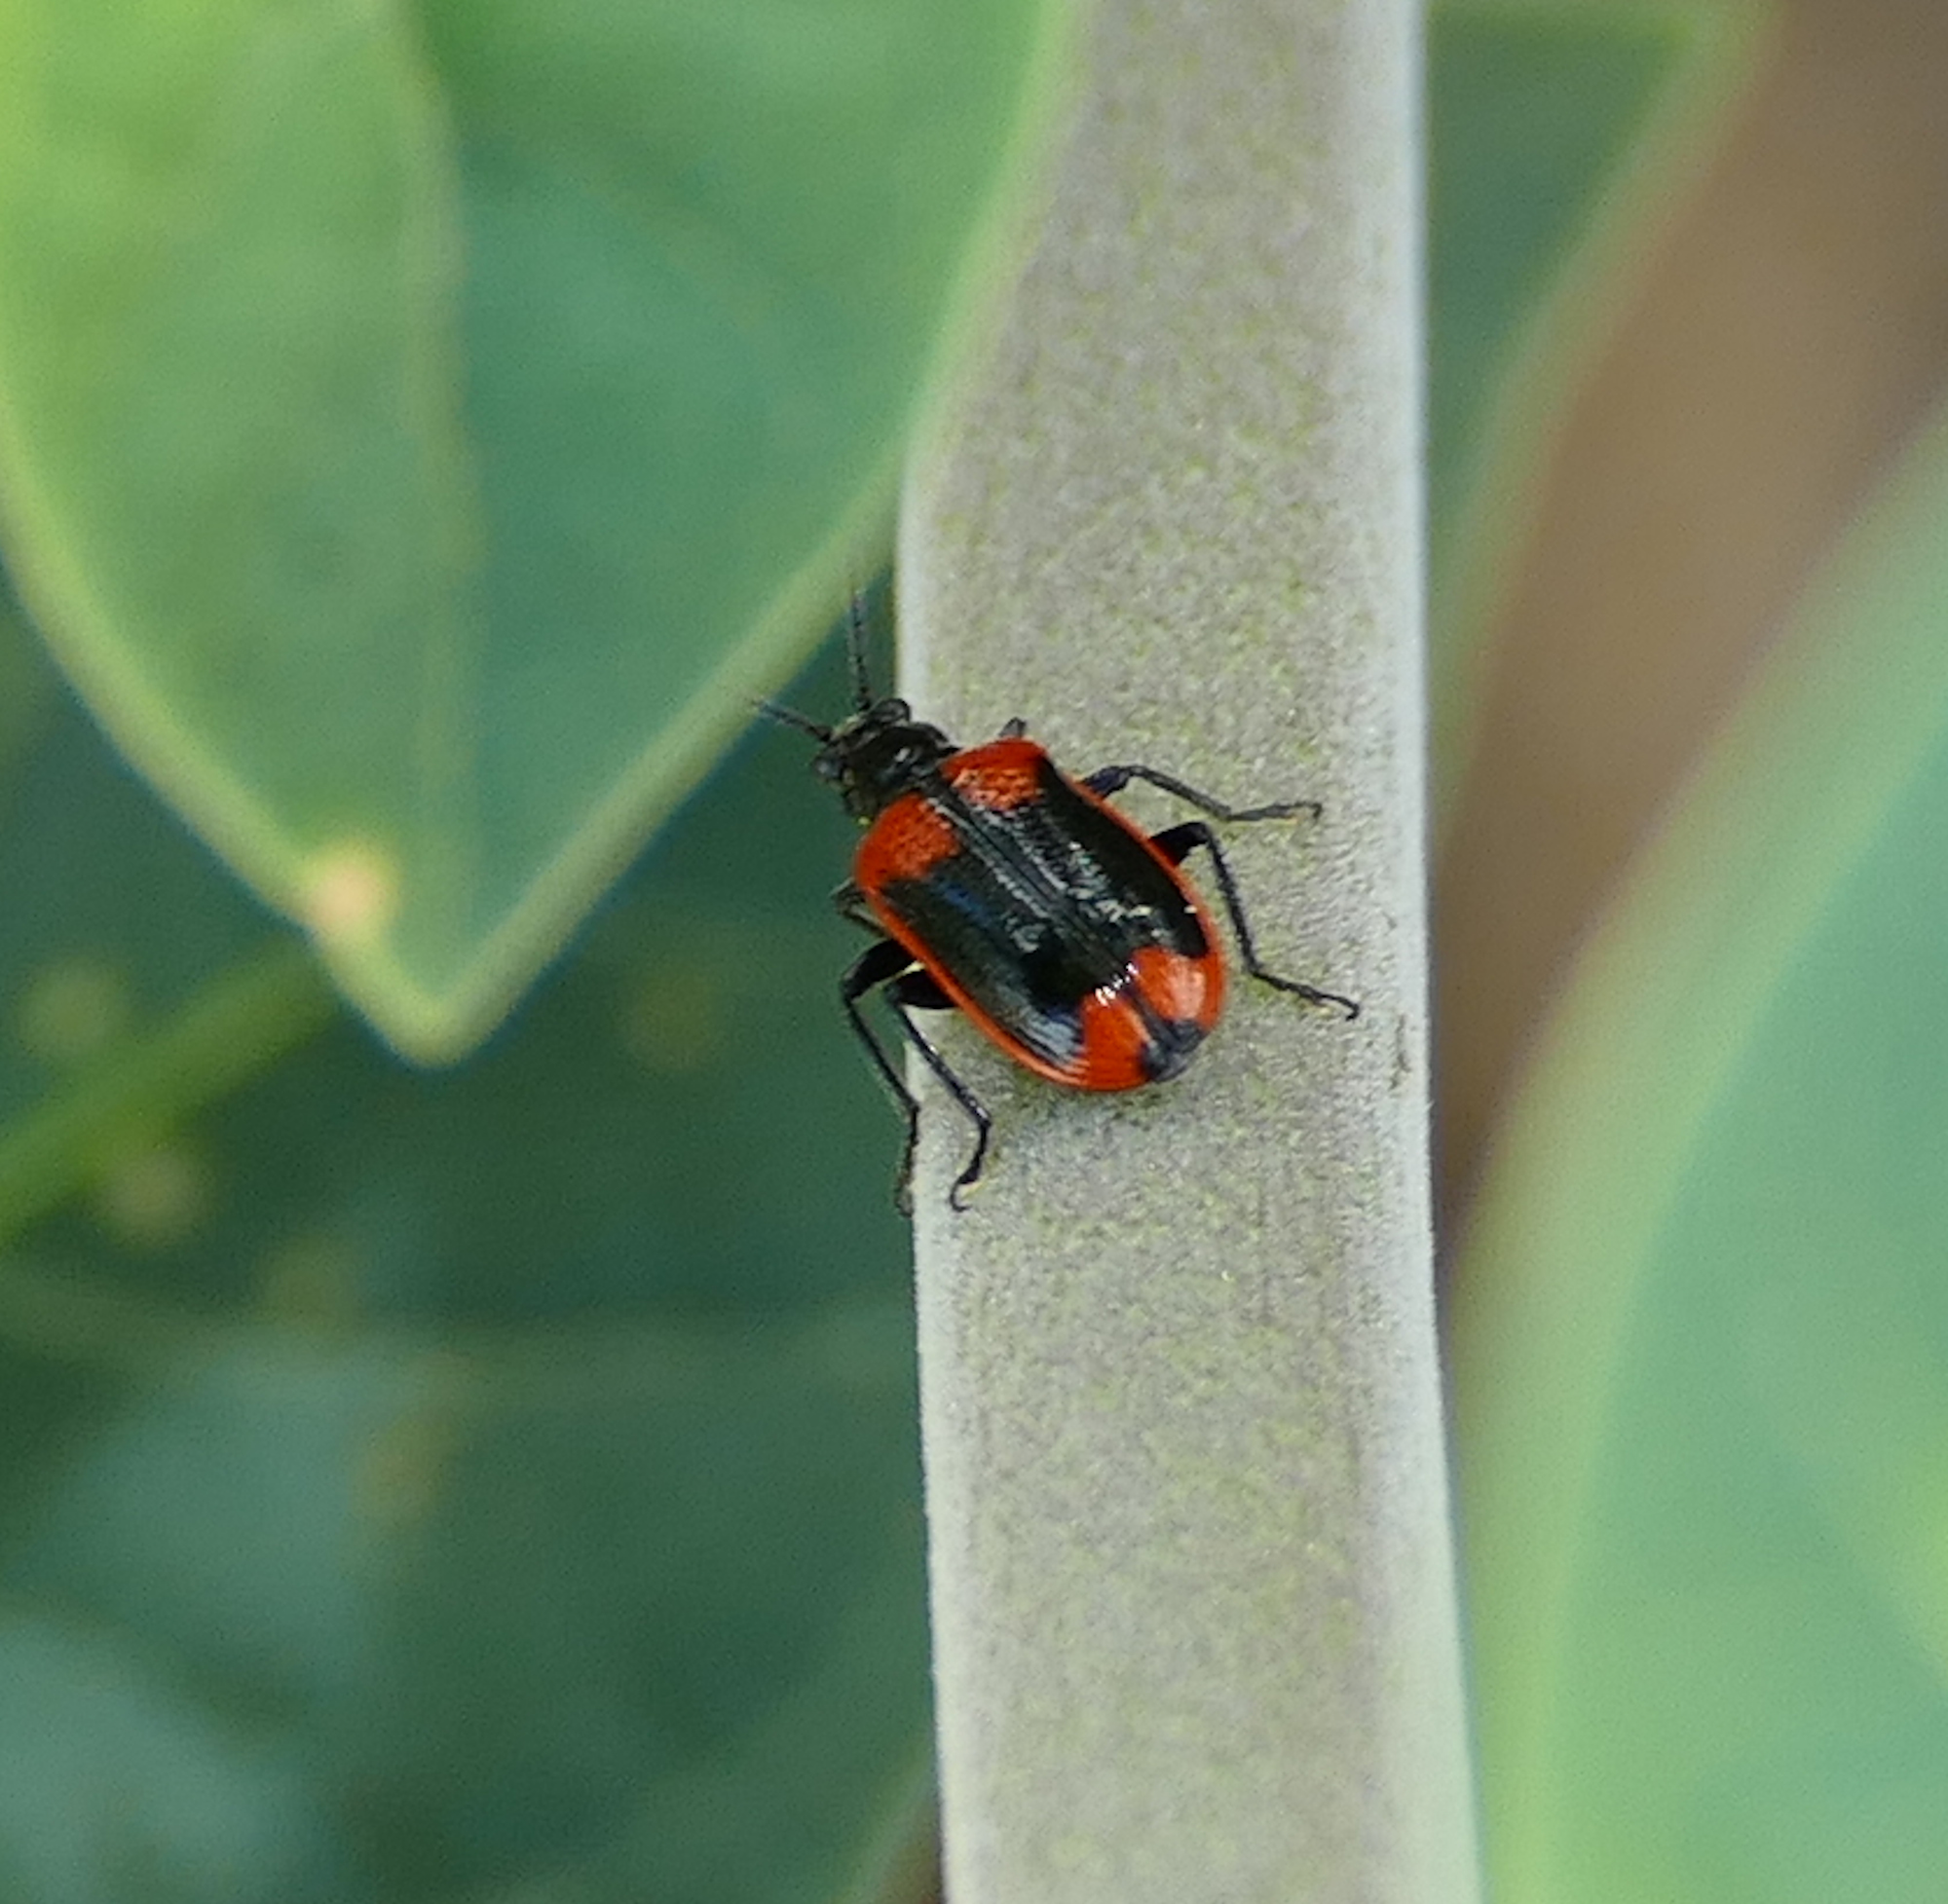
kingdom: Animalia
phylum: Arthropoda
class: Insecta
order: Coleoptera
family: Chrysomelidae
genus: Lema
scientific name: Lema confusa
